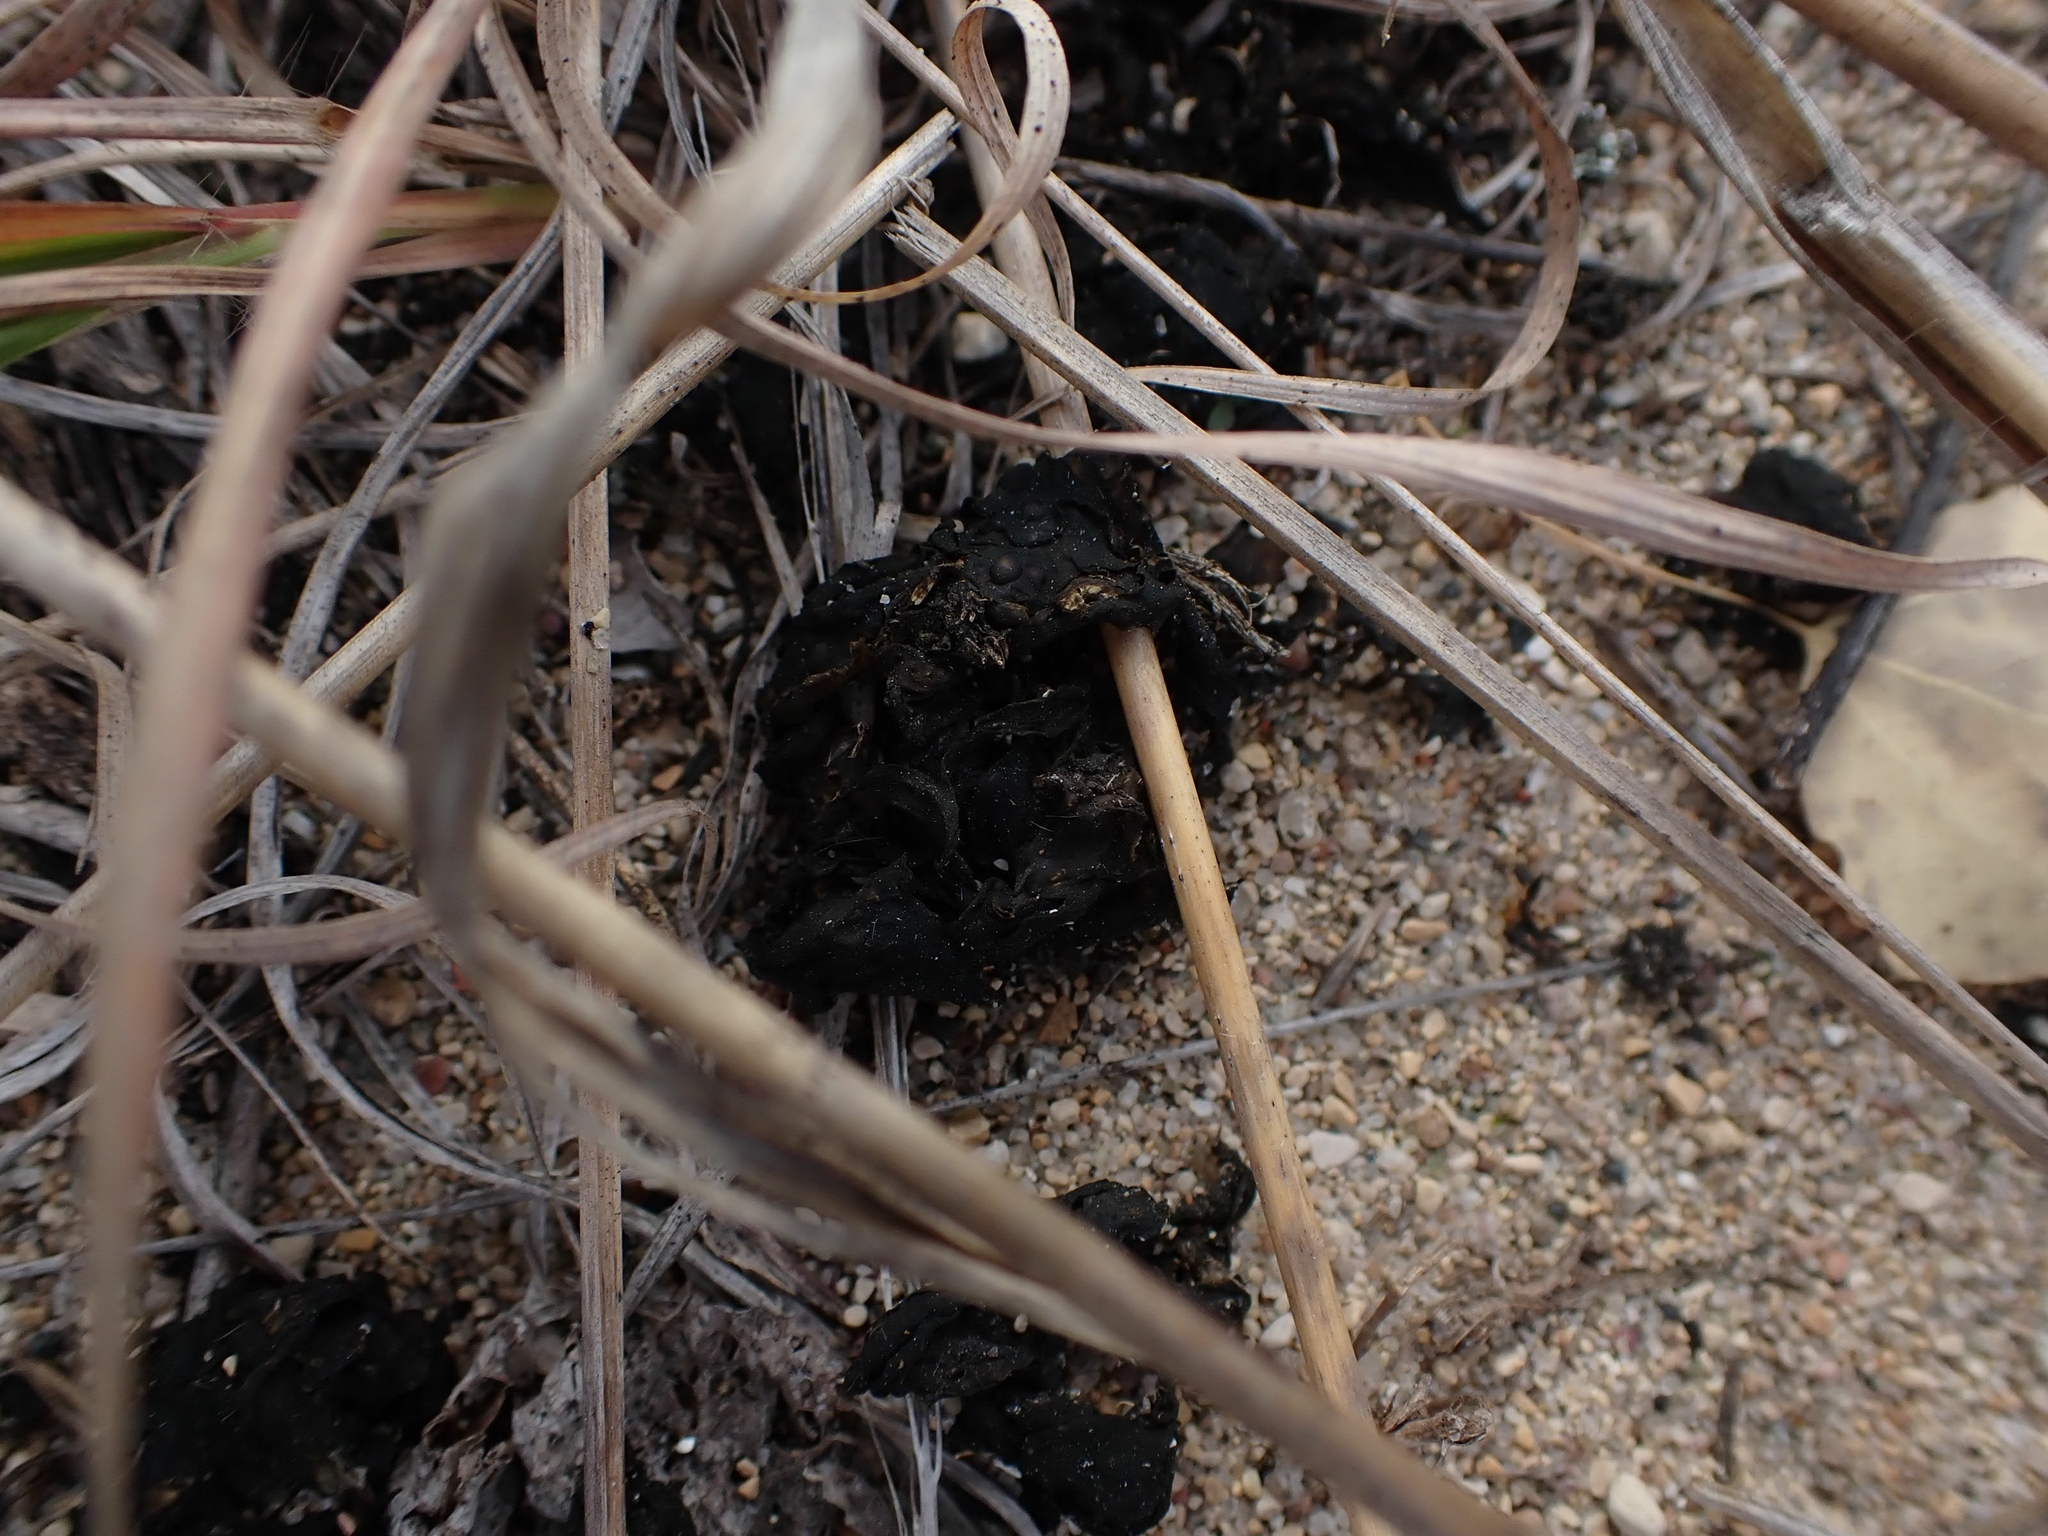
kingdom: Bacteria
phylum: Cyanobacteria
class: Cyanobacteriia
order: Cyanobacteriales
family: Nostocaceae
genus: Nostoc
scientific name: Nostoc commune
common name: Star jelly
